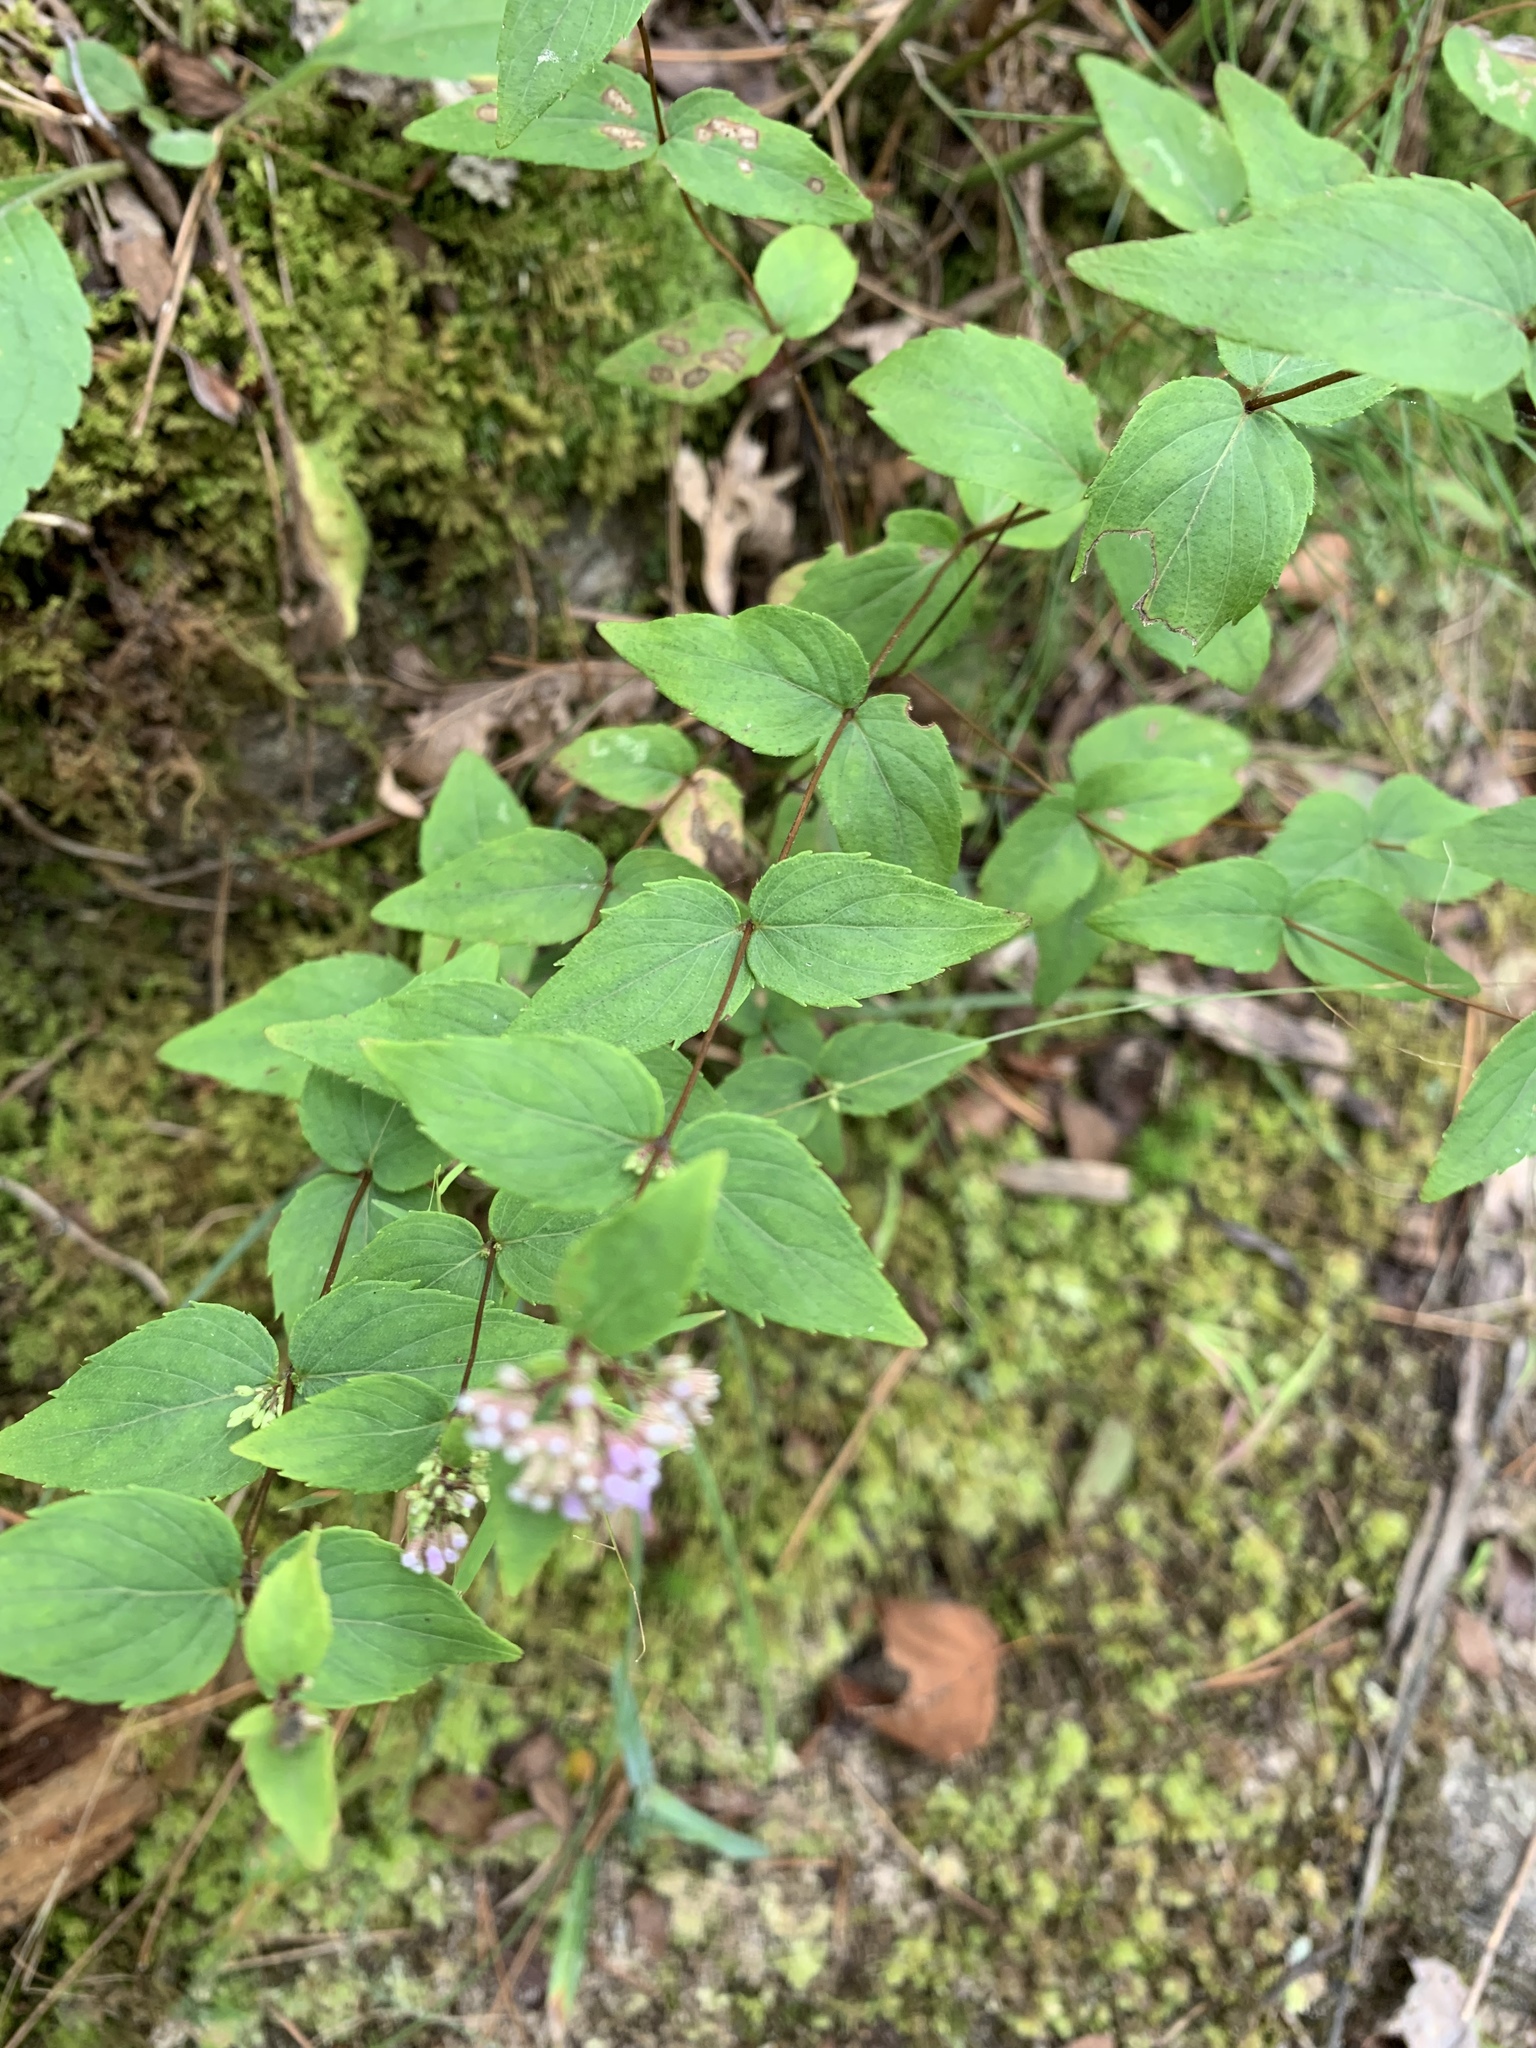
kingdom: Plantae
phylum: Tracheophyta
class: Magnoliopsida
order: Lamiales
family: Lamiaceae
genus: Cunila
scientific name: Cunila origanoides
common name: American dittany
